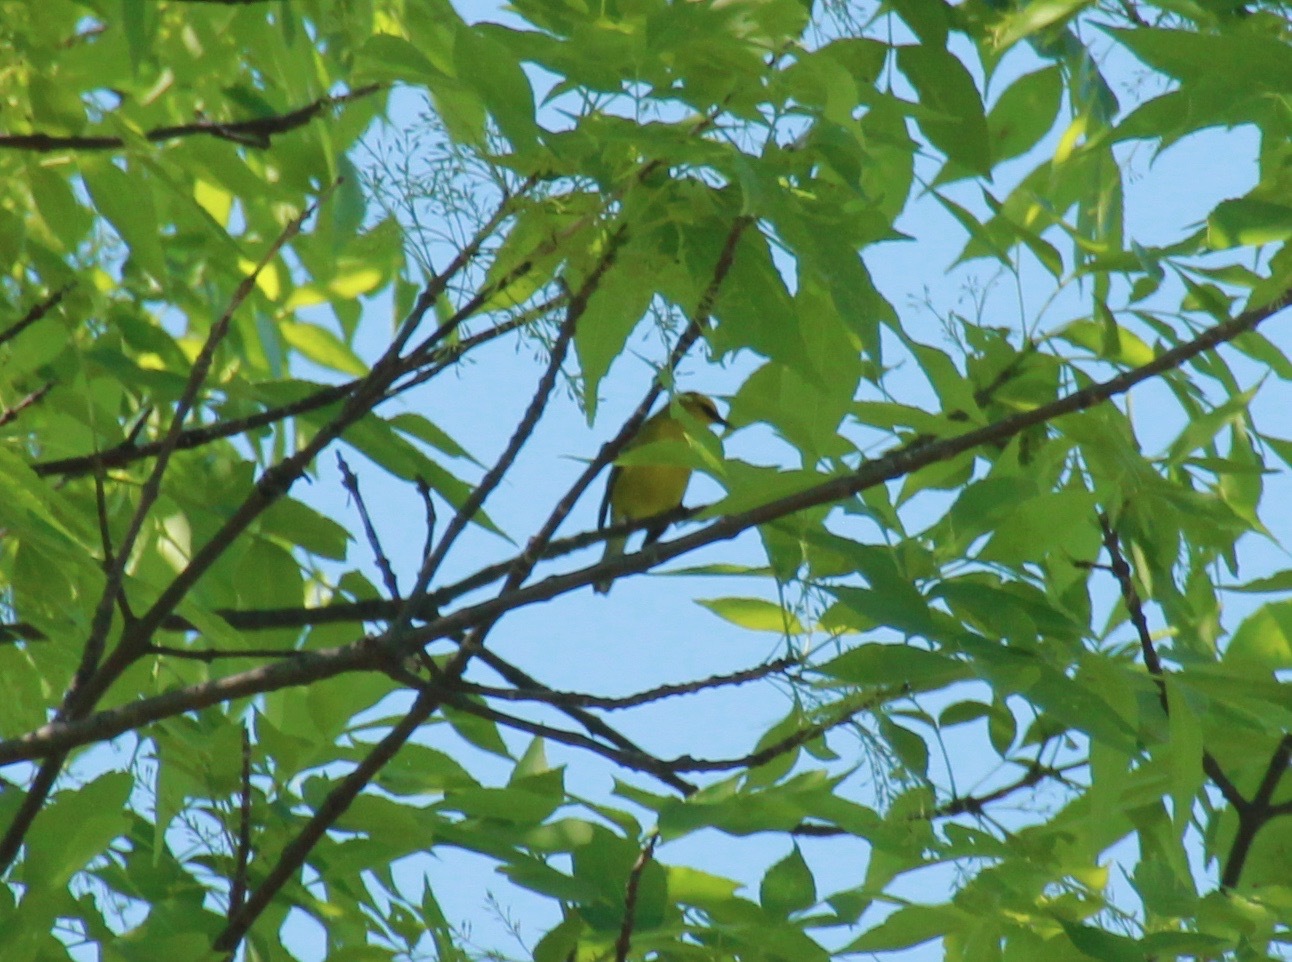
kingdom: Animalia
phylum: Chordata
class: Aves
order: Passeriformes
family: Parulidae
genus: Vermivora
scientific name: Vermivora cyanoptera
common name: Blue-winged warbler
